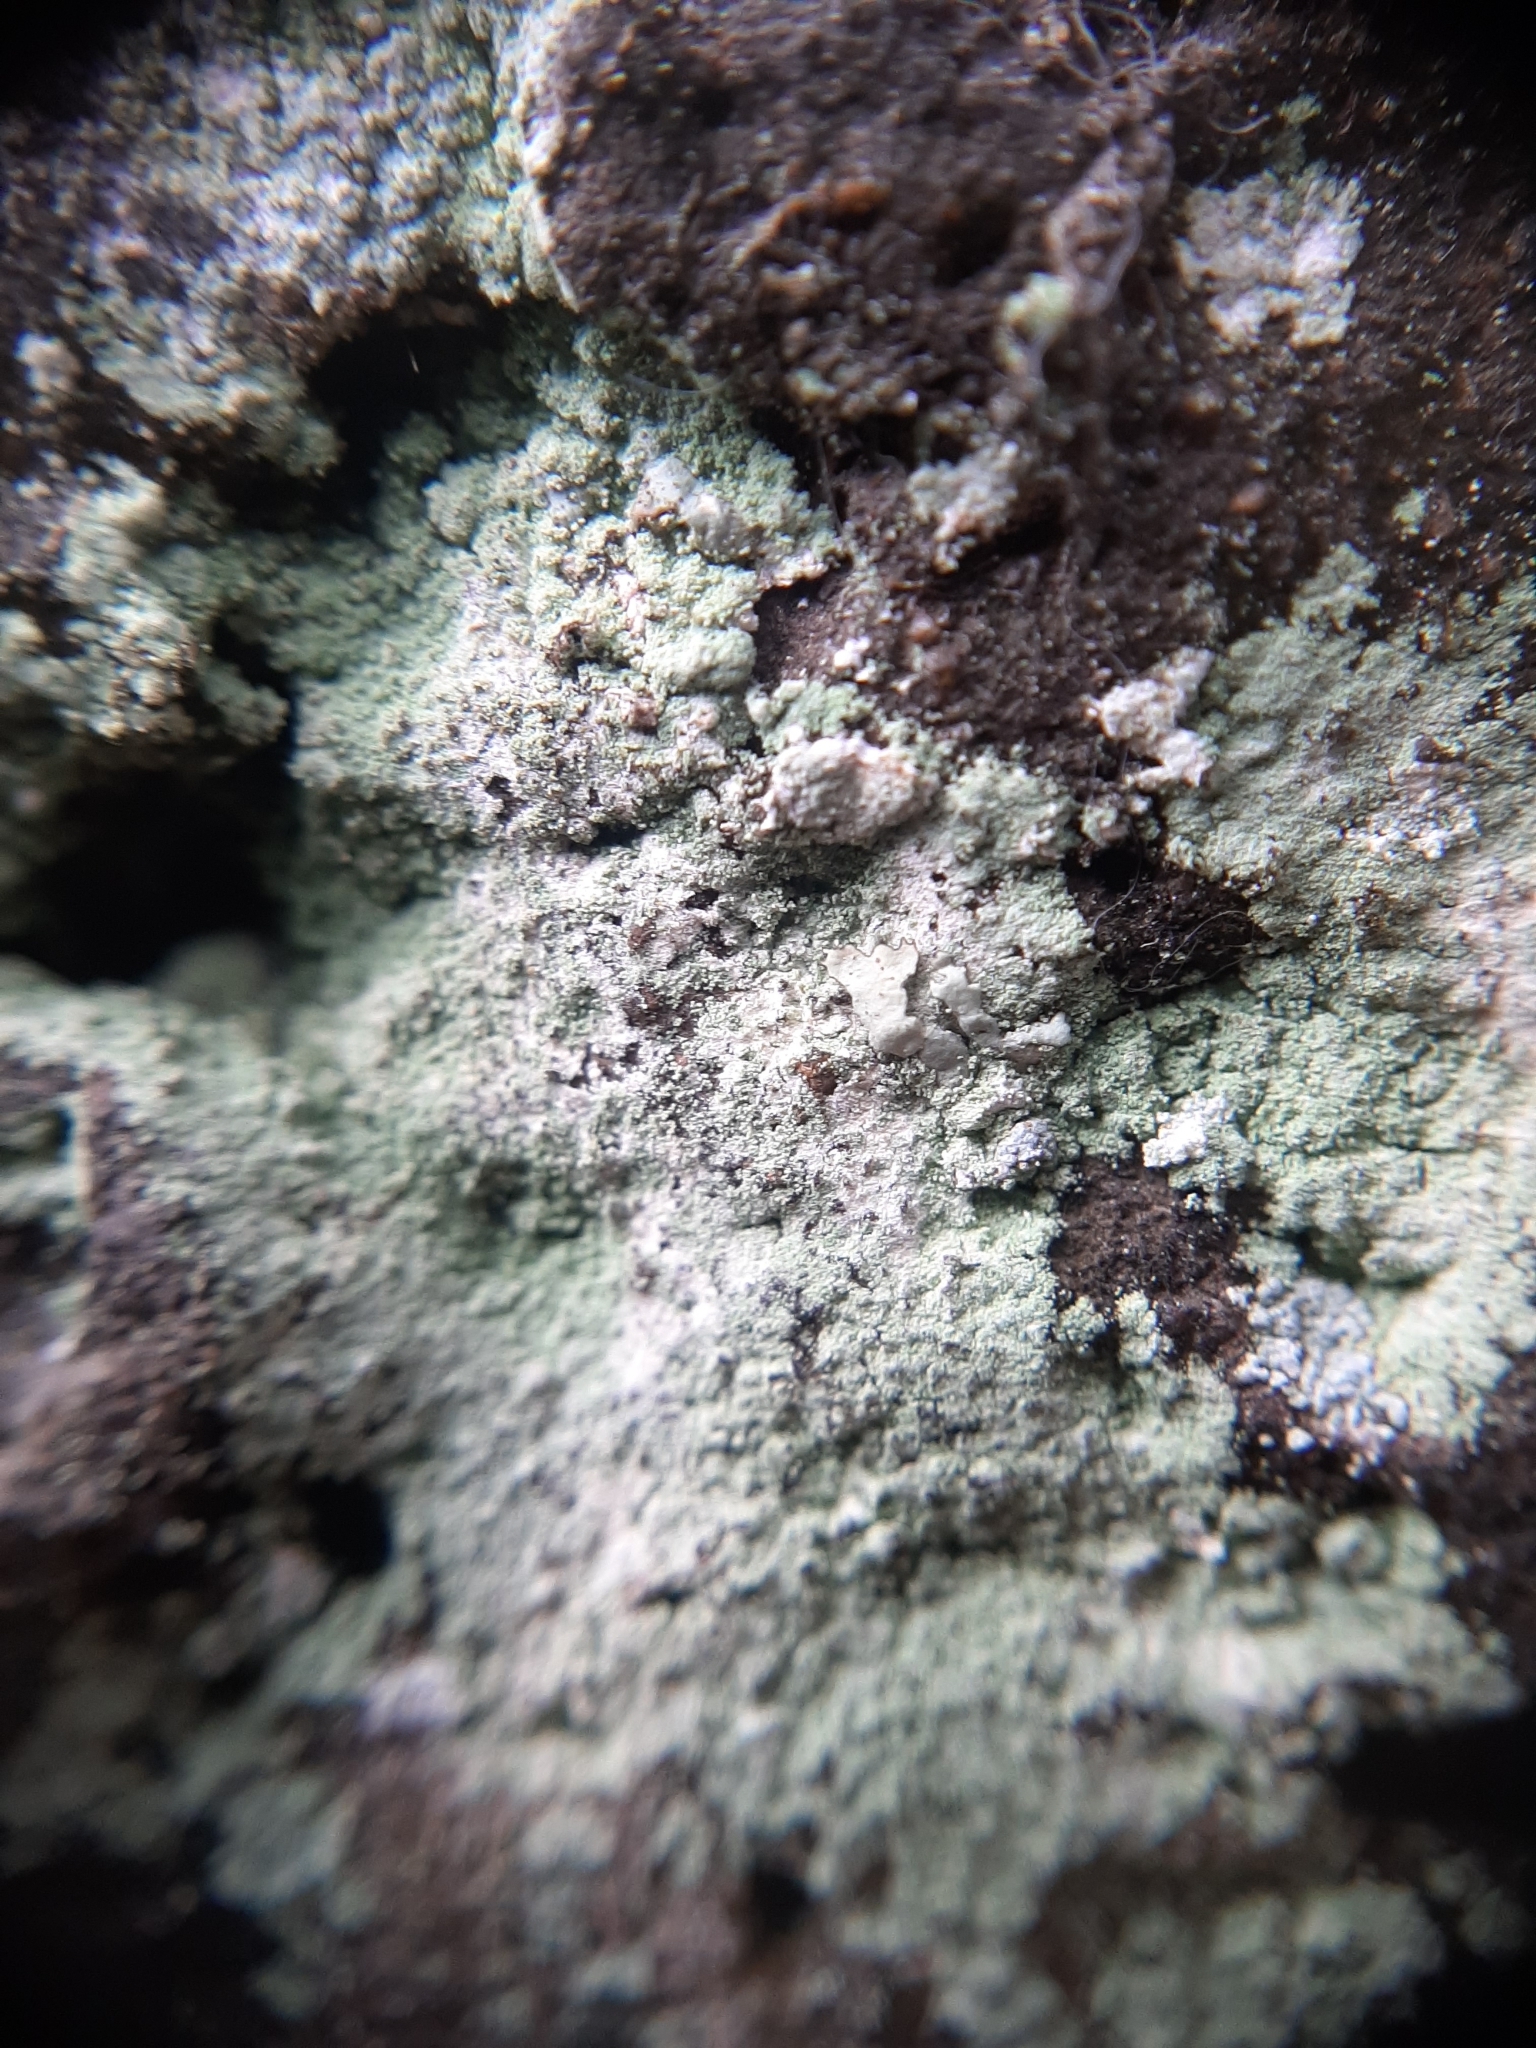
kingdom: Fungi
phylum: Ascomycota
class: Lecanoromycetes
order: Lecanorales
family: Stereocaulaceae
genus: Lepraria
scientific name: Lepraria lobificans
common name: Fluffy dust lichen
